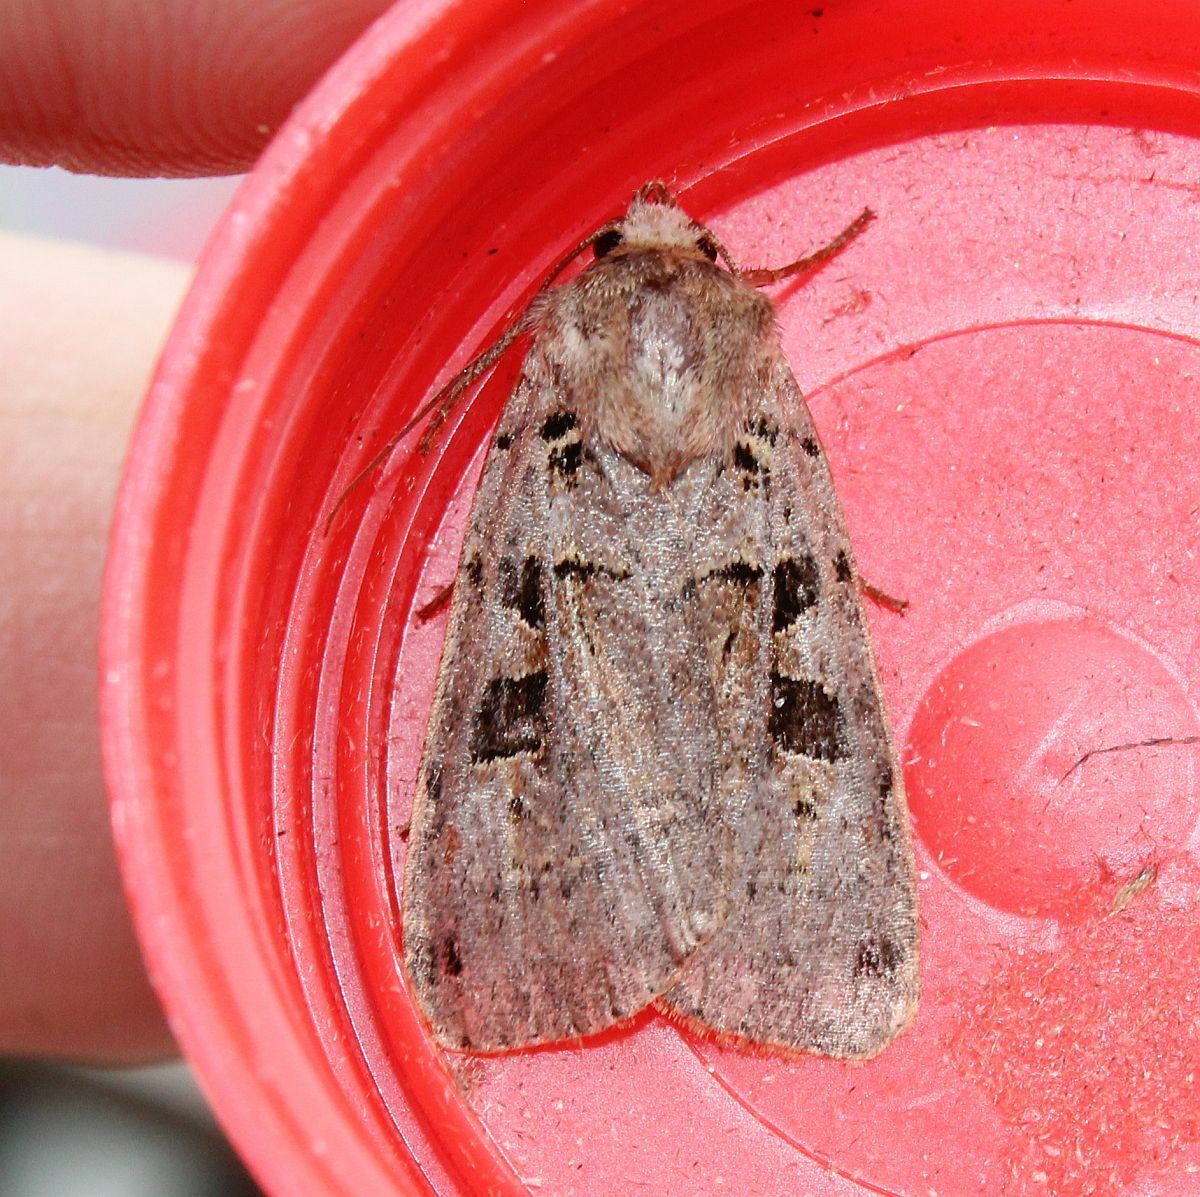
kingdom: Animalia
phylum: Arthropoda
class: Insecta
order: Lepidoptera
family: Noctuidae
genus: Xestia
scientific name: Xestia triangulum
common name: Double square-spot
